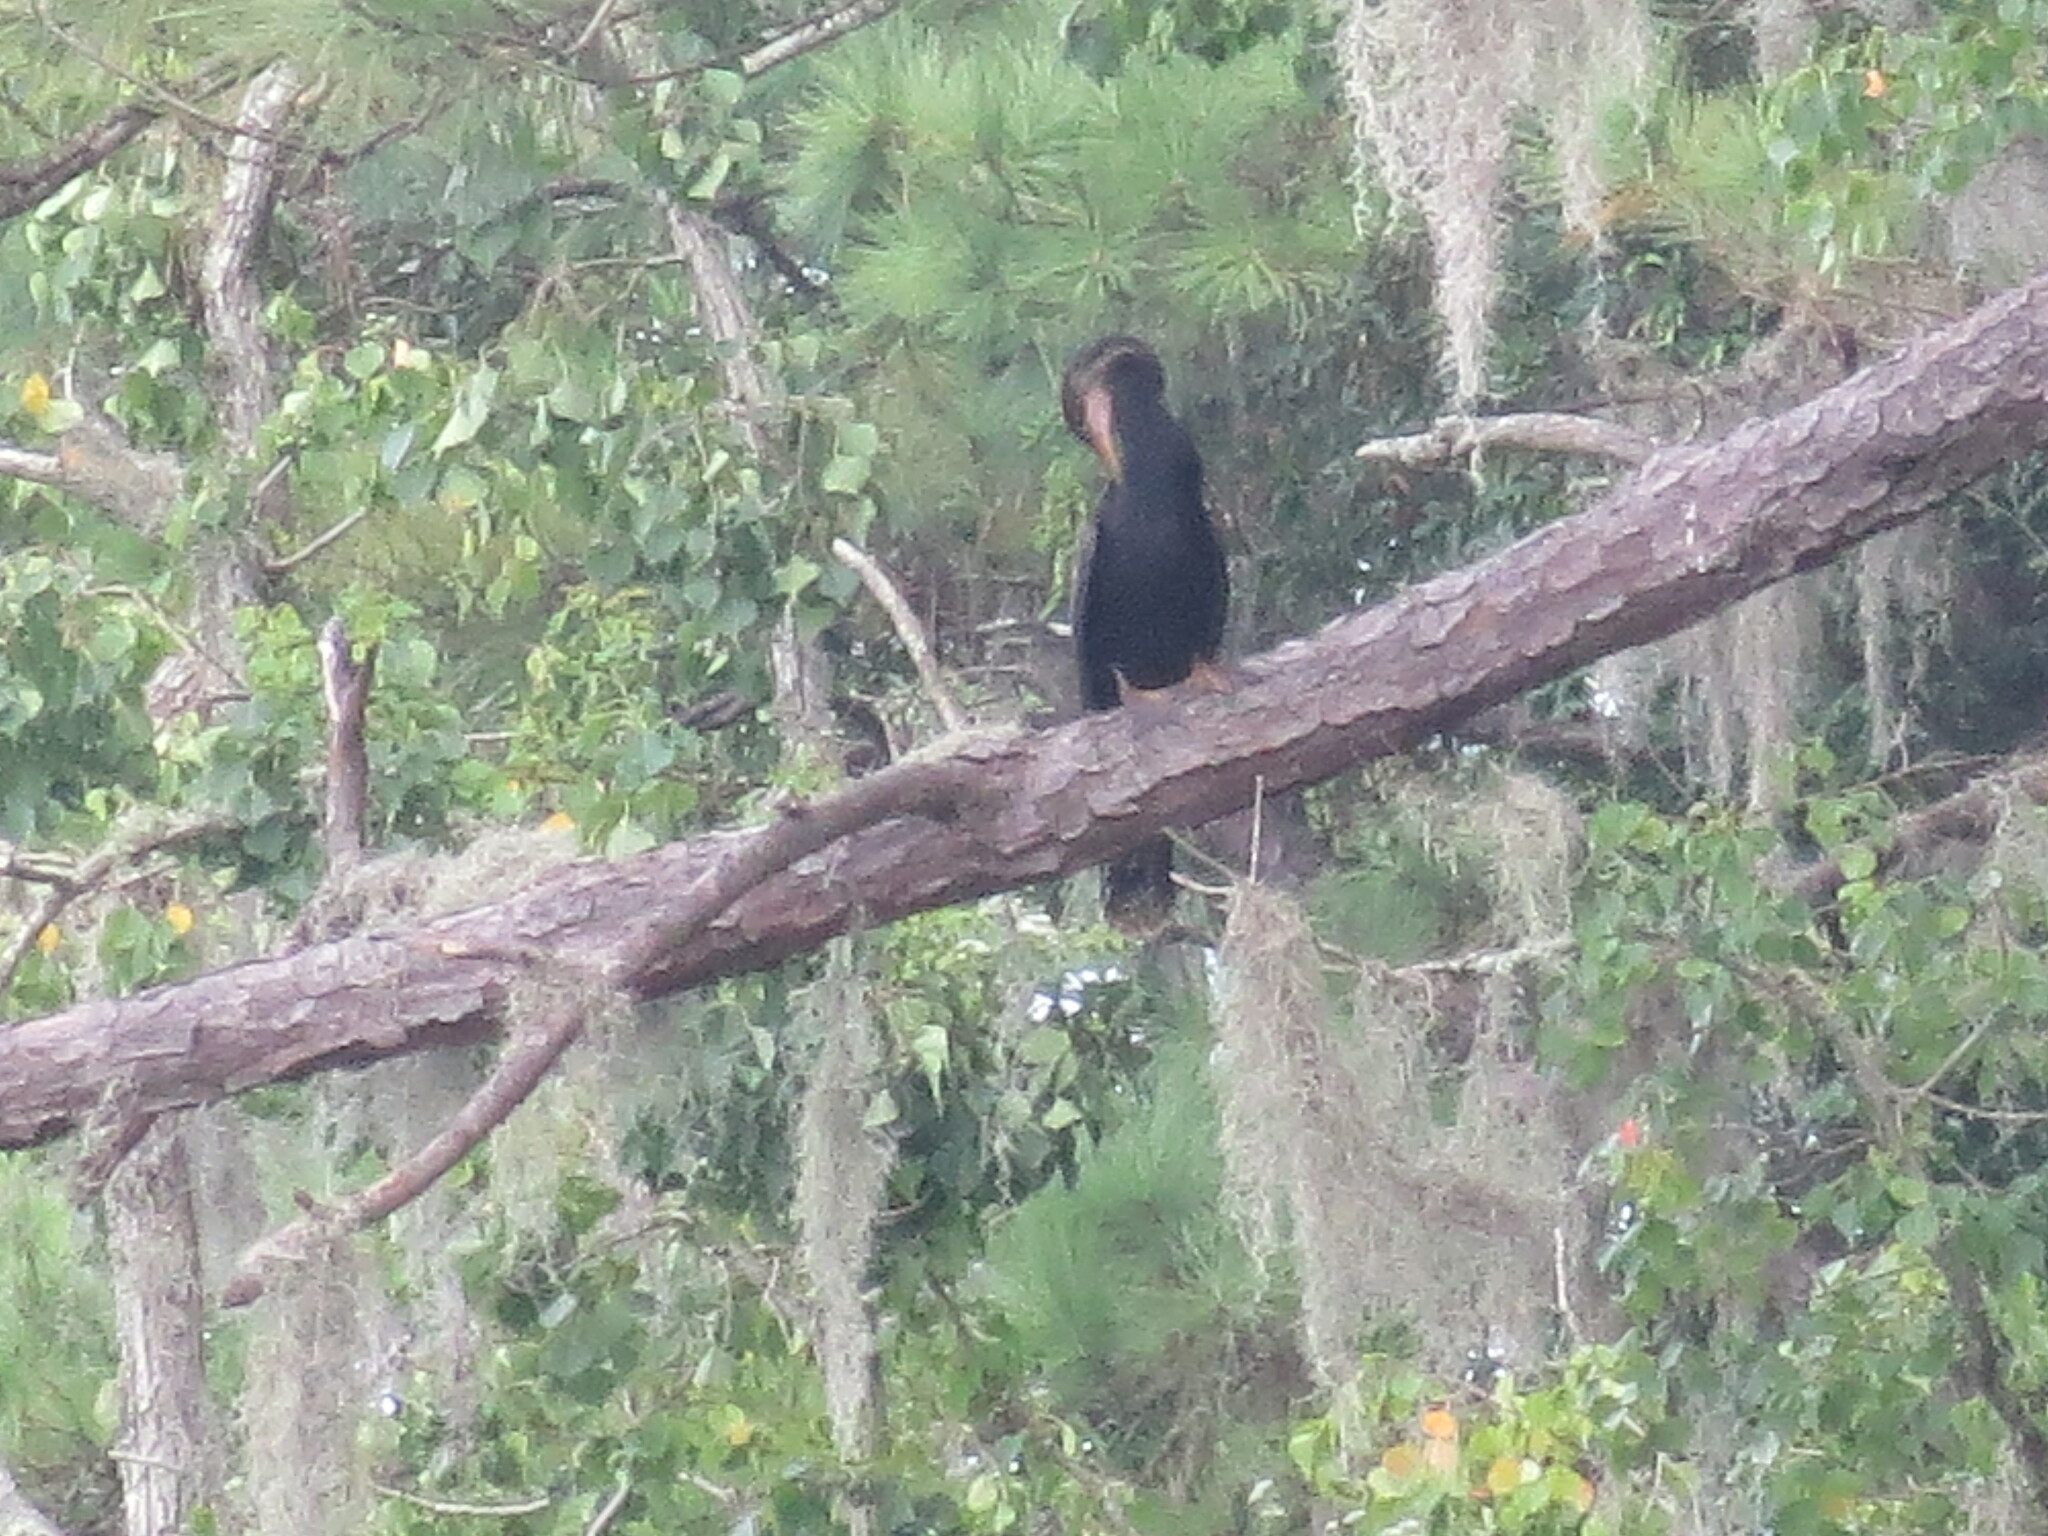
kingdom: Animalia
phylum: Chordata
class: Aves
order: Suliformes
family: Anhingidae
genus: Anhinga
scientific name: Anhinga anhinga
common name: Anhinga
